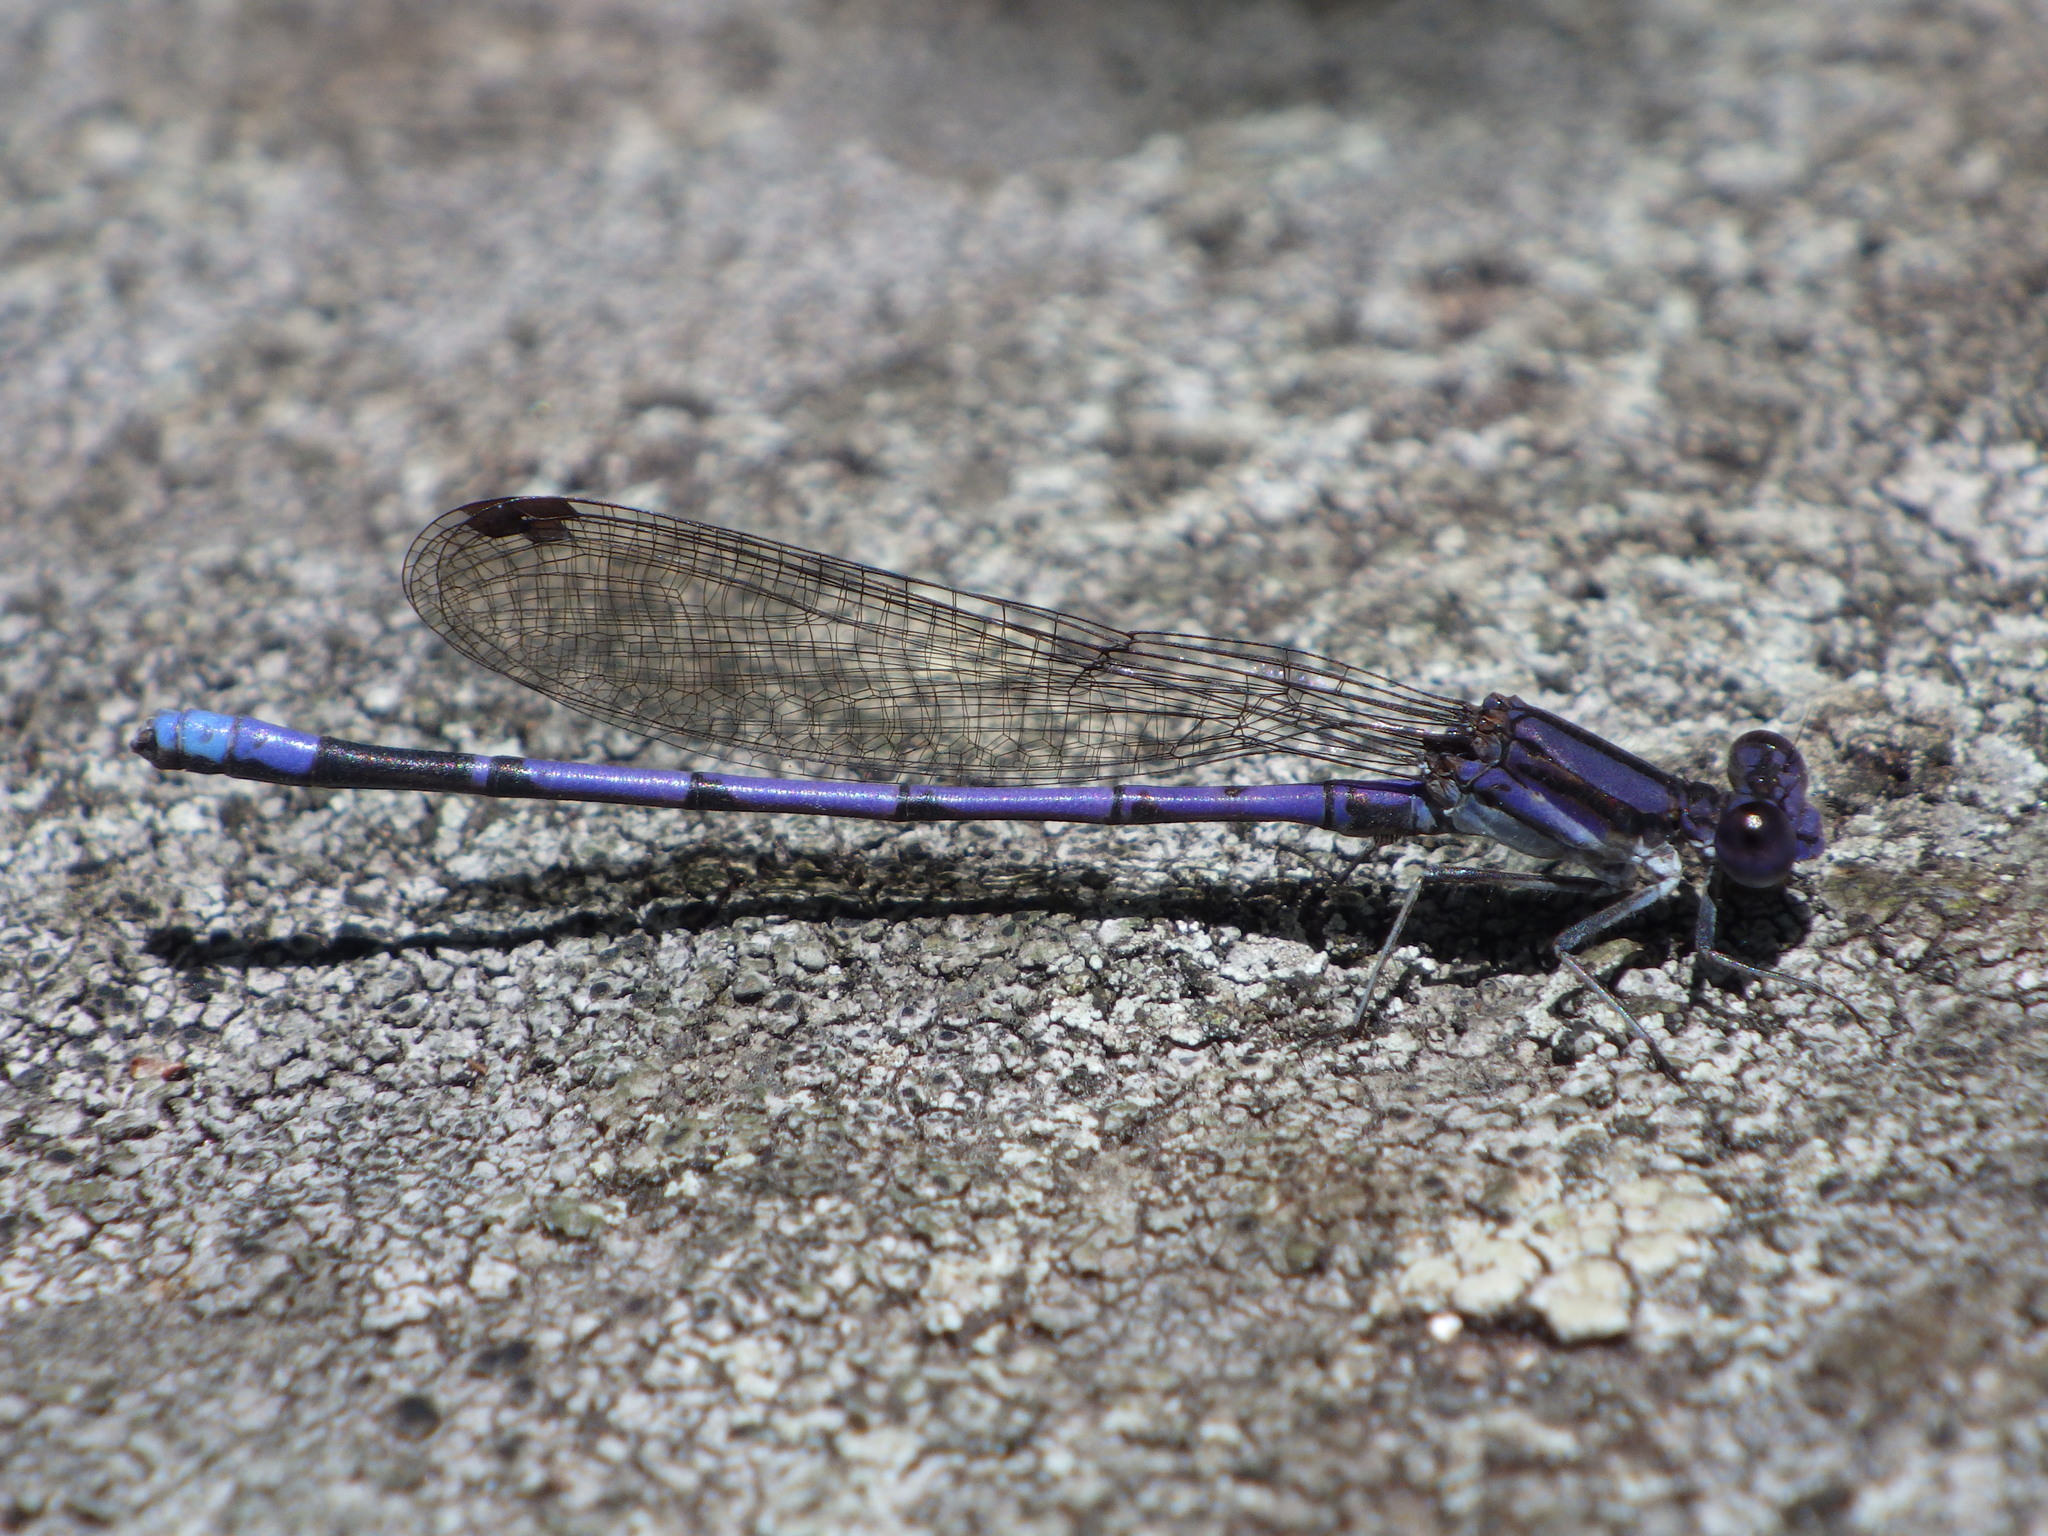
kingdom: Animalia
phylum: Arthropoda
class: Insecta
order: Odonata
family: Coenagrionidae
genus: Argia
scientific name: Argia fumipennis
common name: Variable dancer
